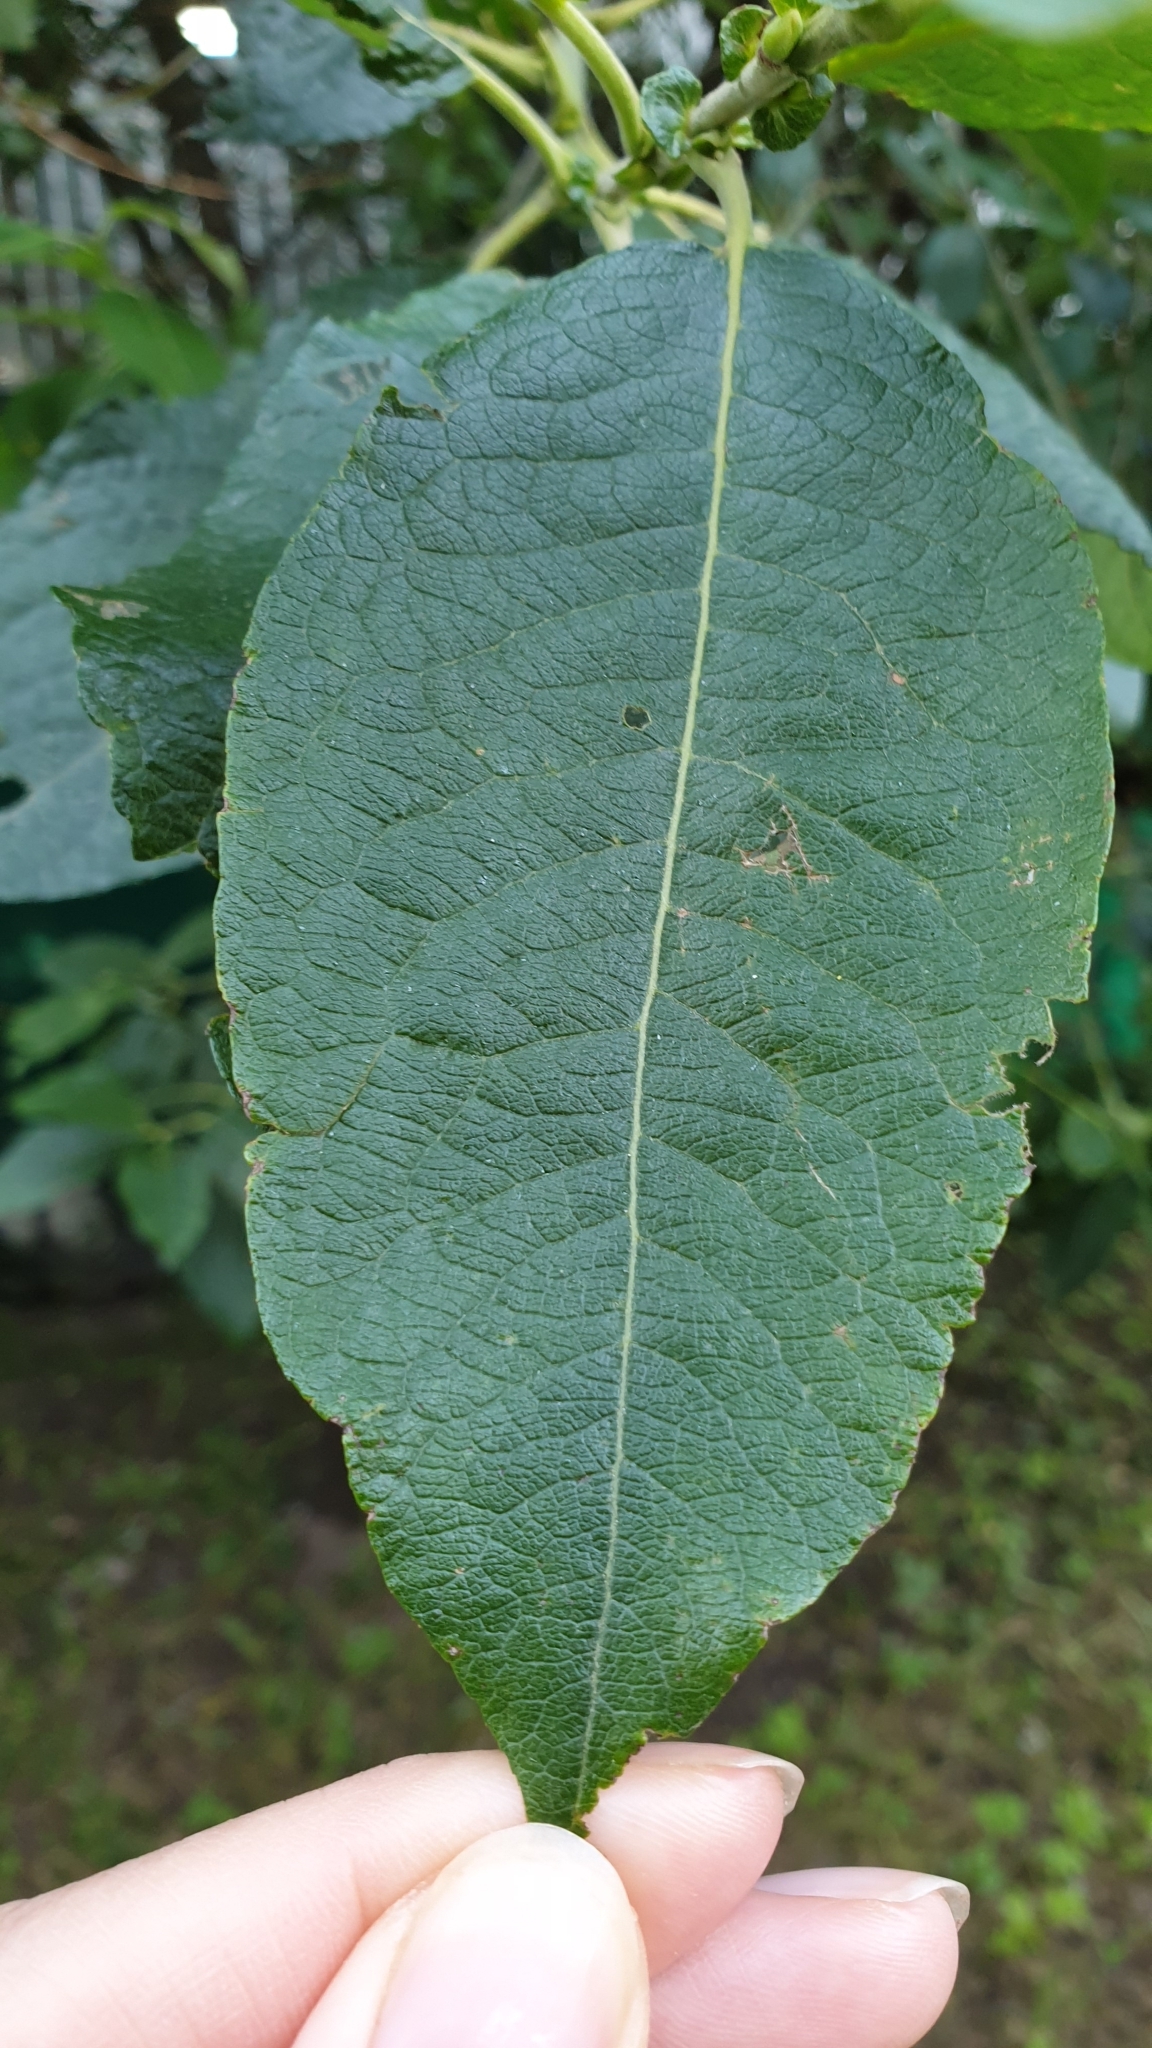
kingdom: Plantae
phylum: Tracheophyta
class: Magnoliopsida
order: Malpighiales
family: Salicaceae
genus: Salix
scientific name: Salix caprea
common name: Goat willow
